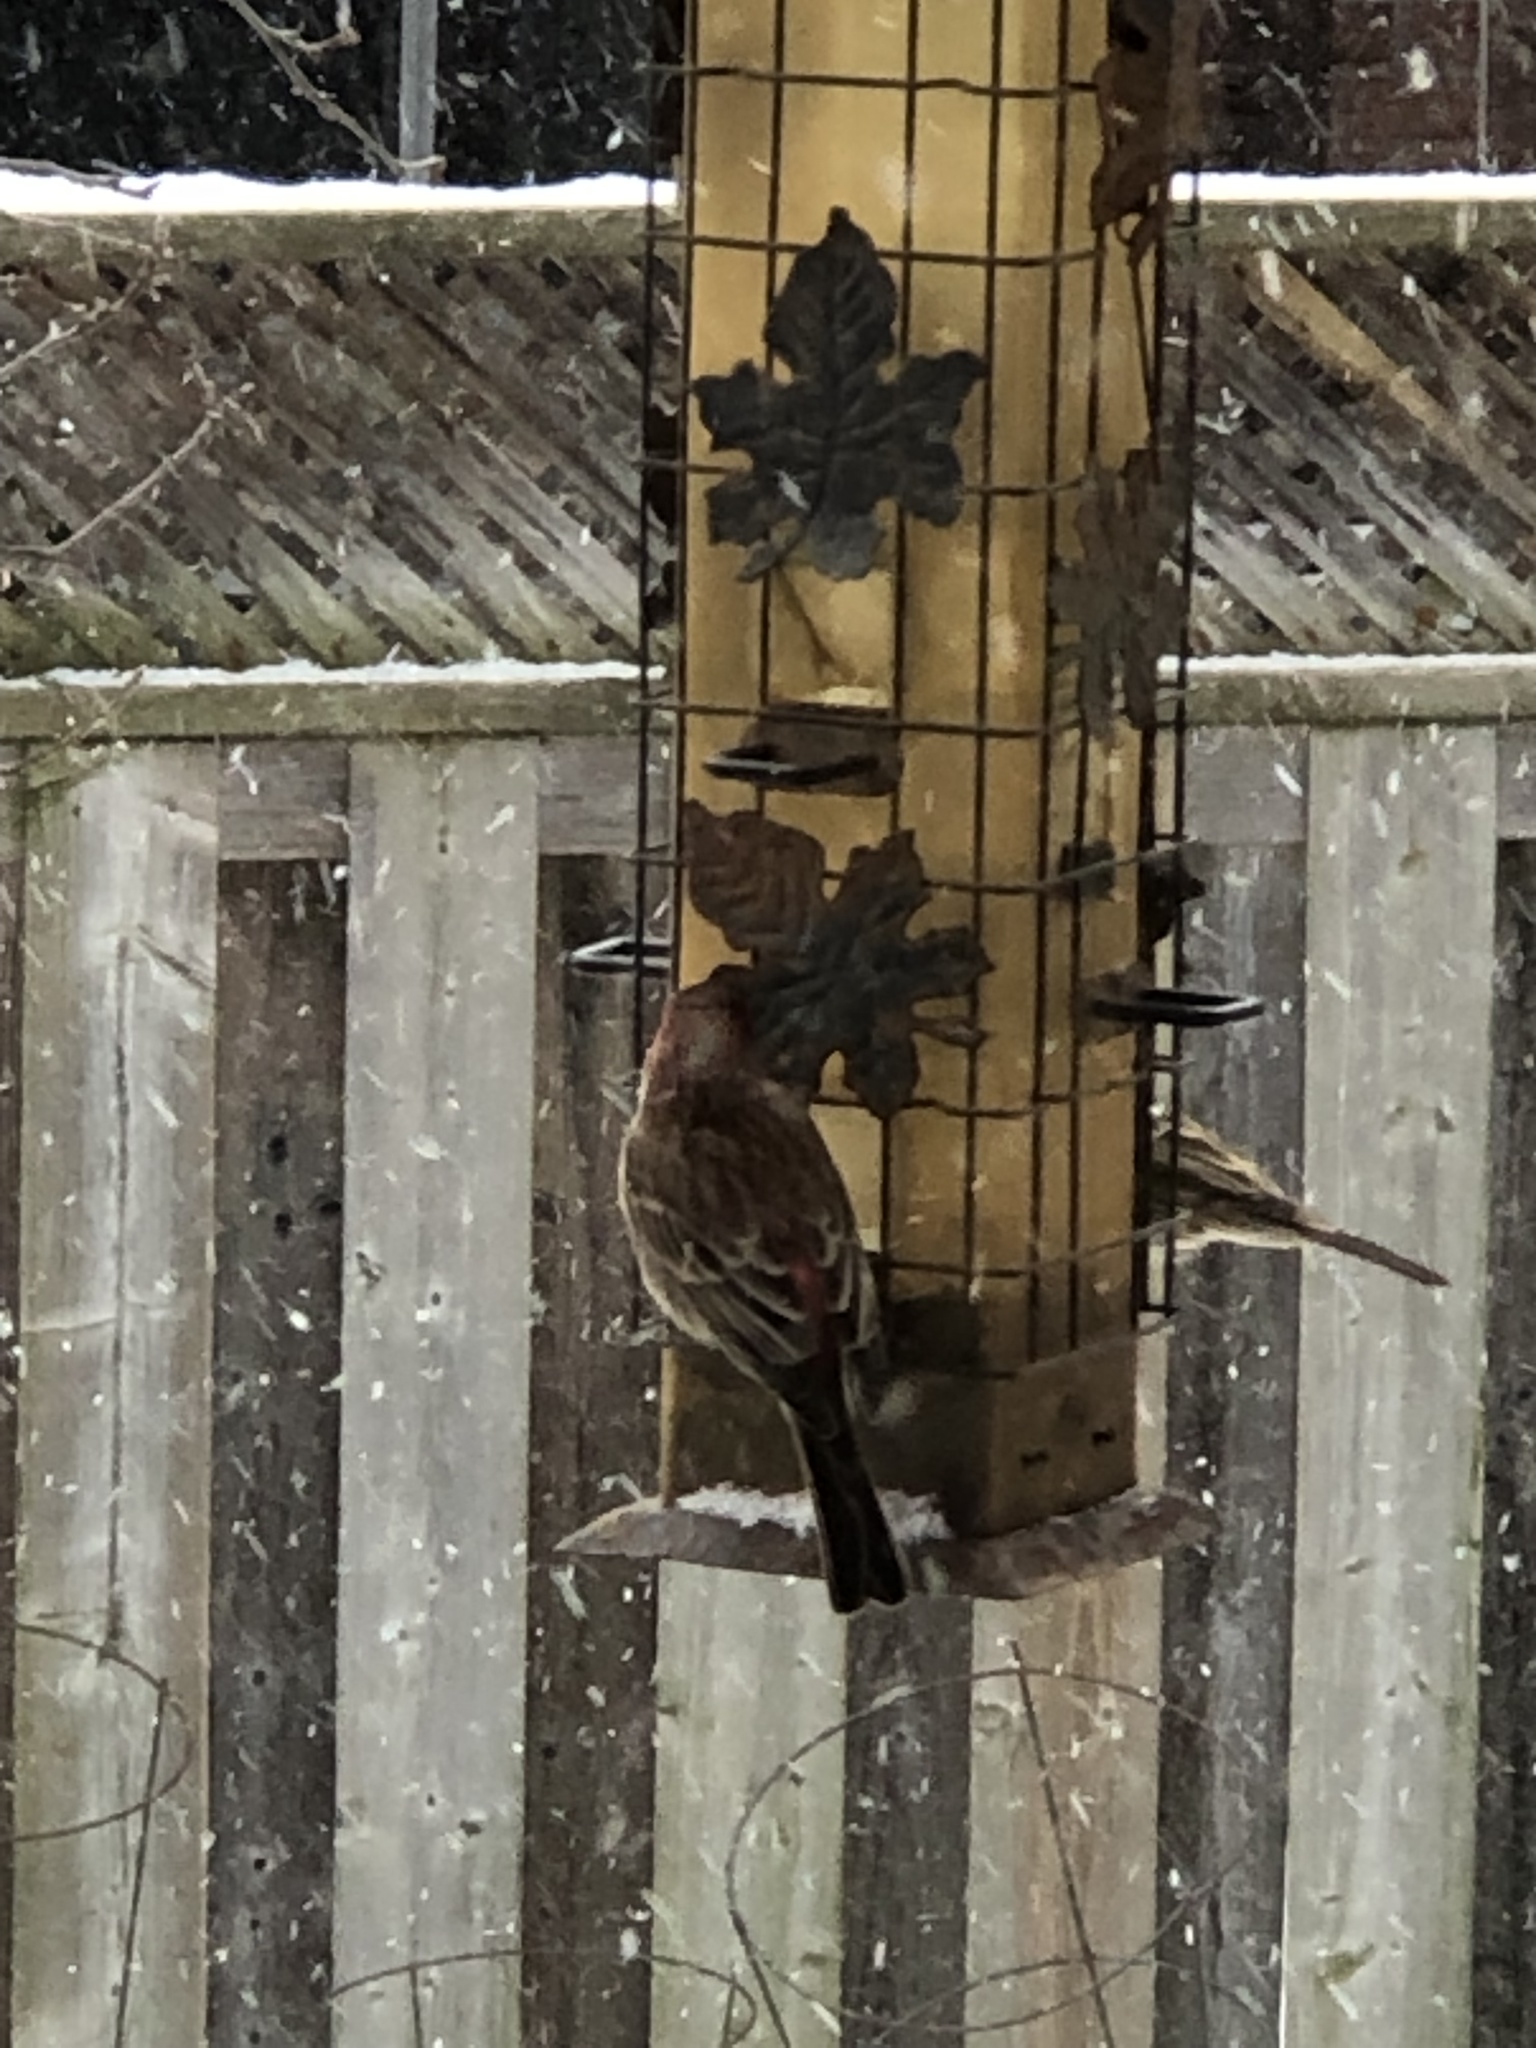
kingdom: Animalia
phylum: Chordata
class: Aves
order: Passeriformes
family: Fringillidae
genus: Haemorhous
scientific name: Haemorhous mexicanus
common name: House finch
